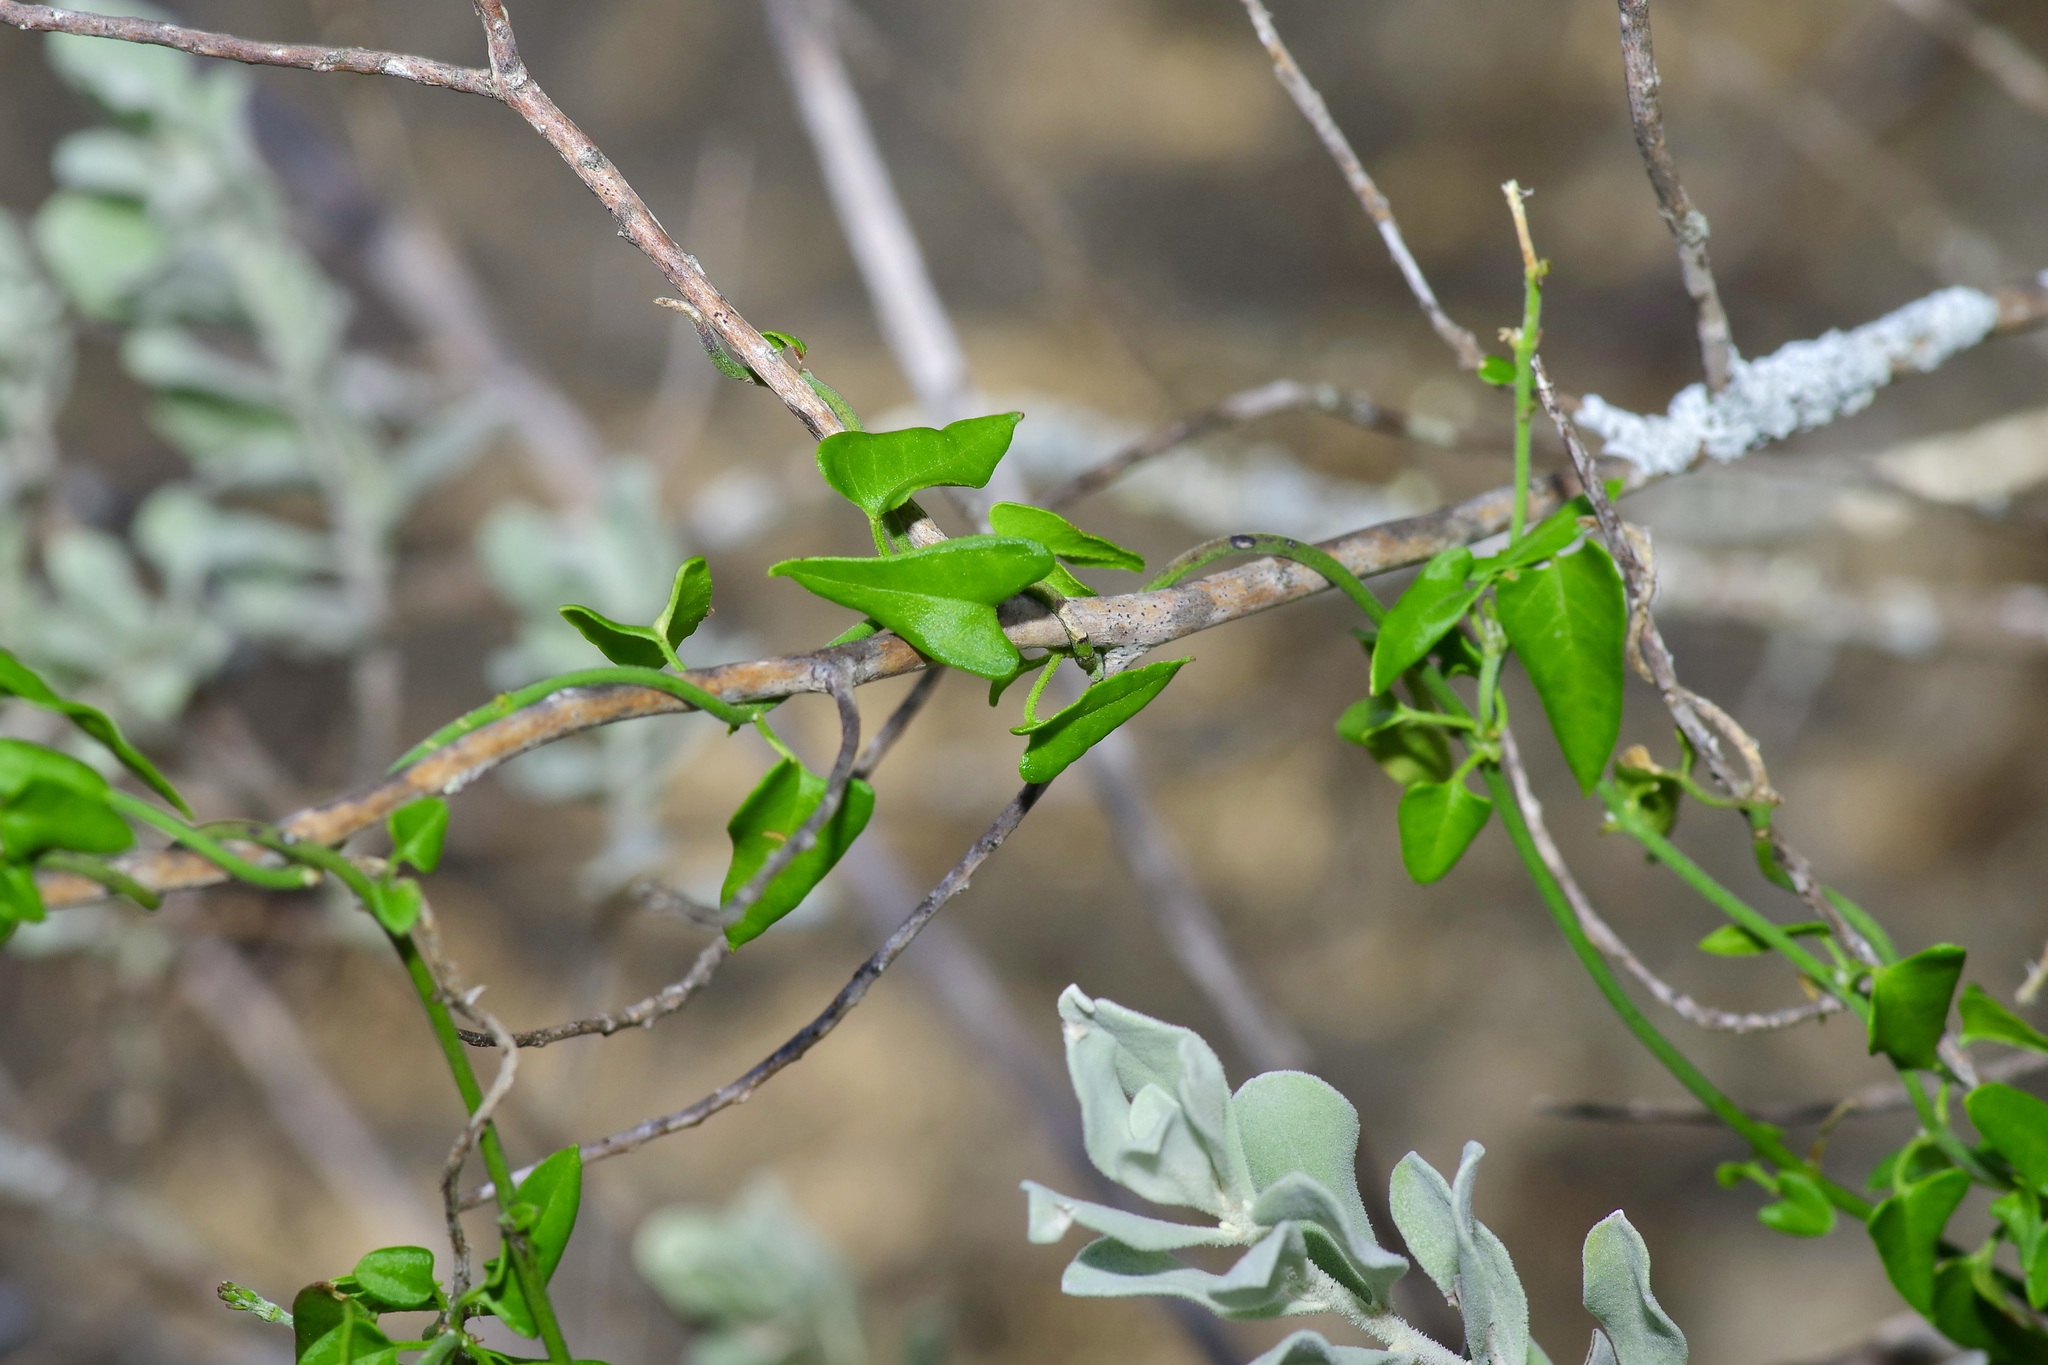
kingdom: Plantae
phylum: Tracheophyta
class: Magnoliopsida
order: Gentianales
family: Apocynaceae
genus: Matelea
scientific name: Matelea sagittifolia
